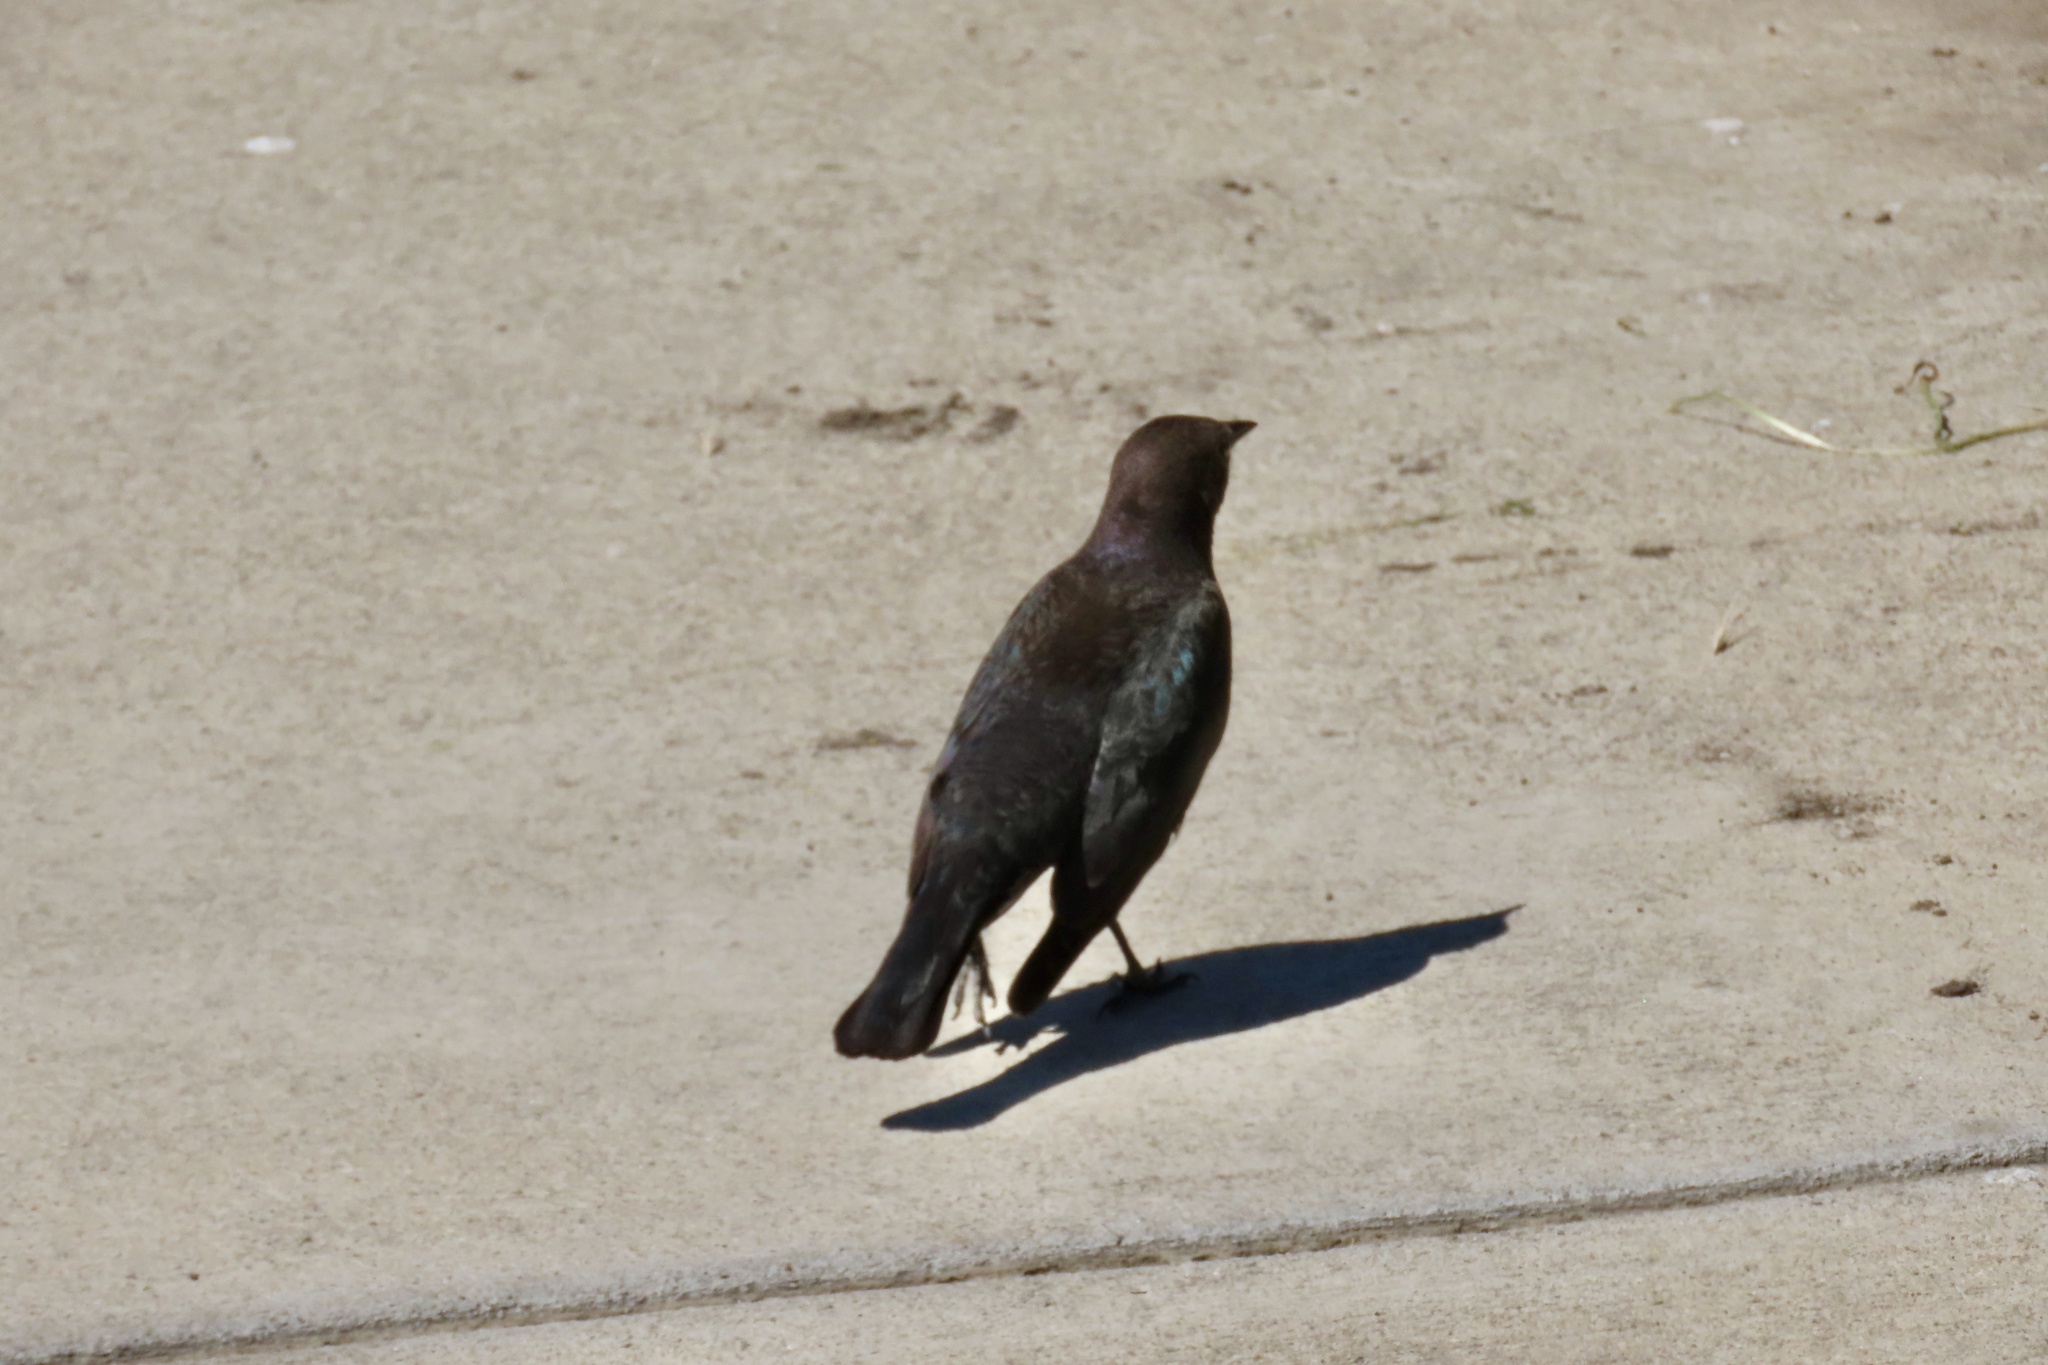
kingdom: Animalia
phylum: Chordata
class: Aves
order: Passeriformes
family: Icteridae
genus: Euphagus
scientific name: Euphagus cyanocephalus
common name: Brewer's blackbird
